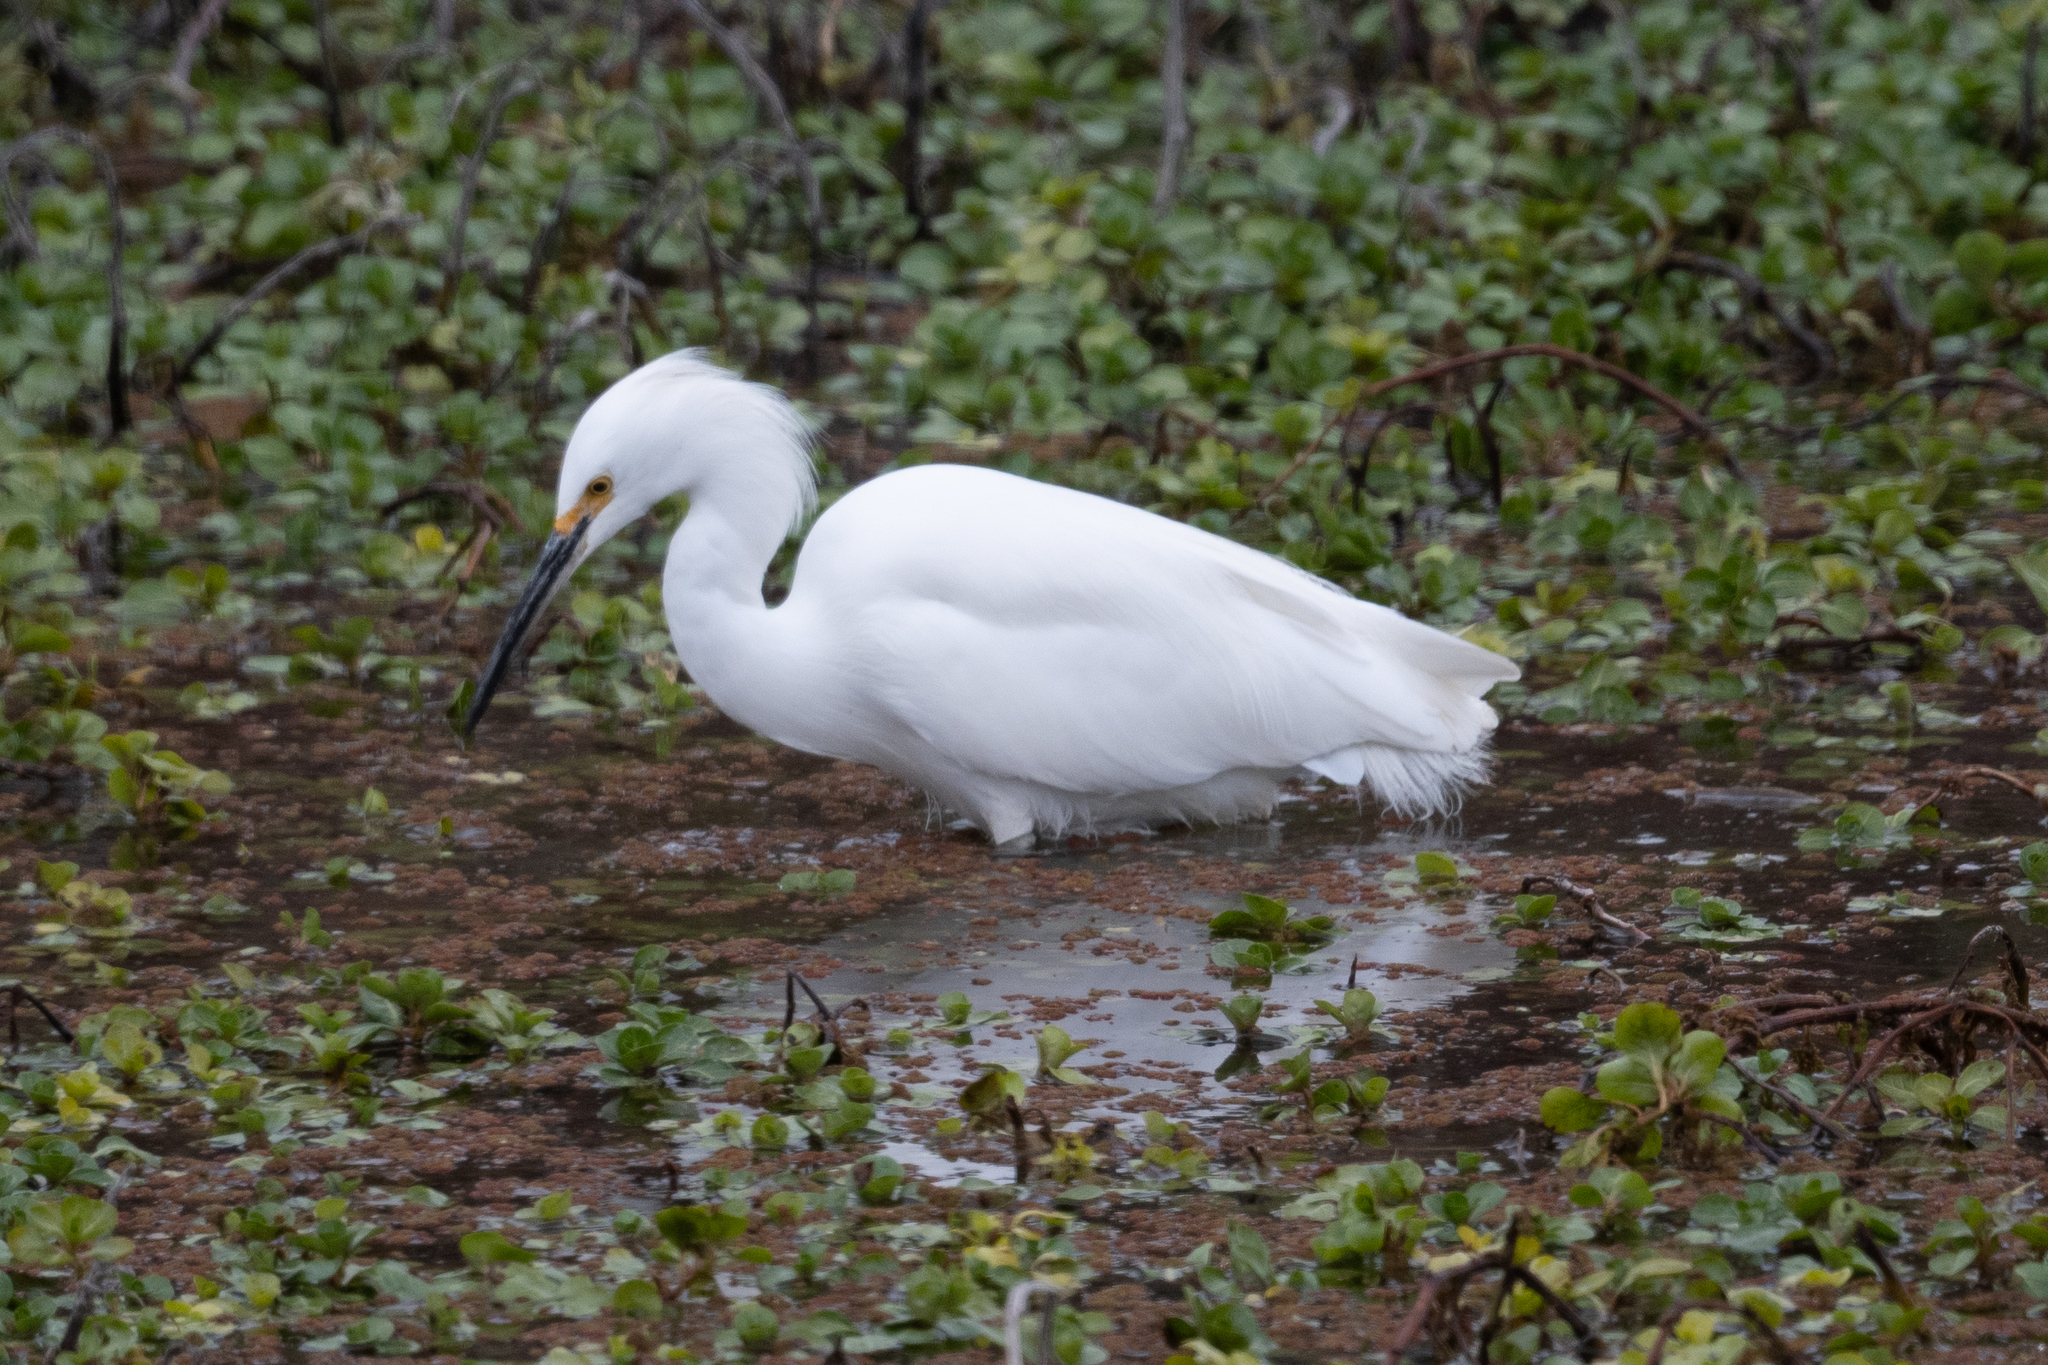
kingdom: Animalia
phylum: Chordata
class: Aves
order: Pelecaniformes
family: Ardeidae
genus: Egretta
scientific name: Egretta thula
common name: Snowy egret
